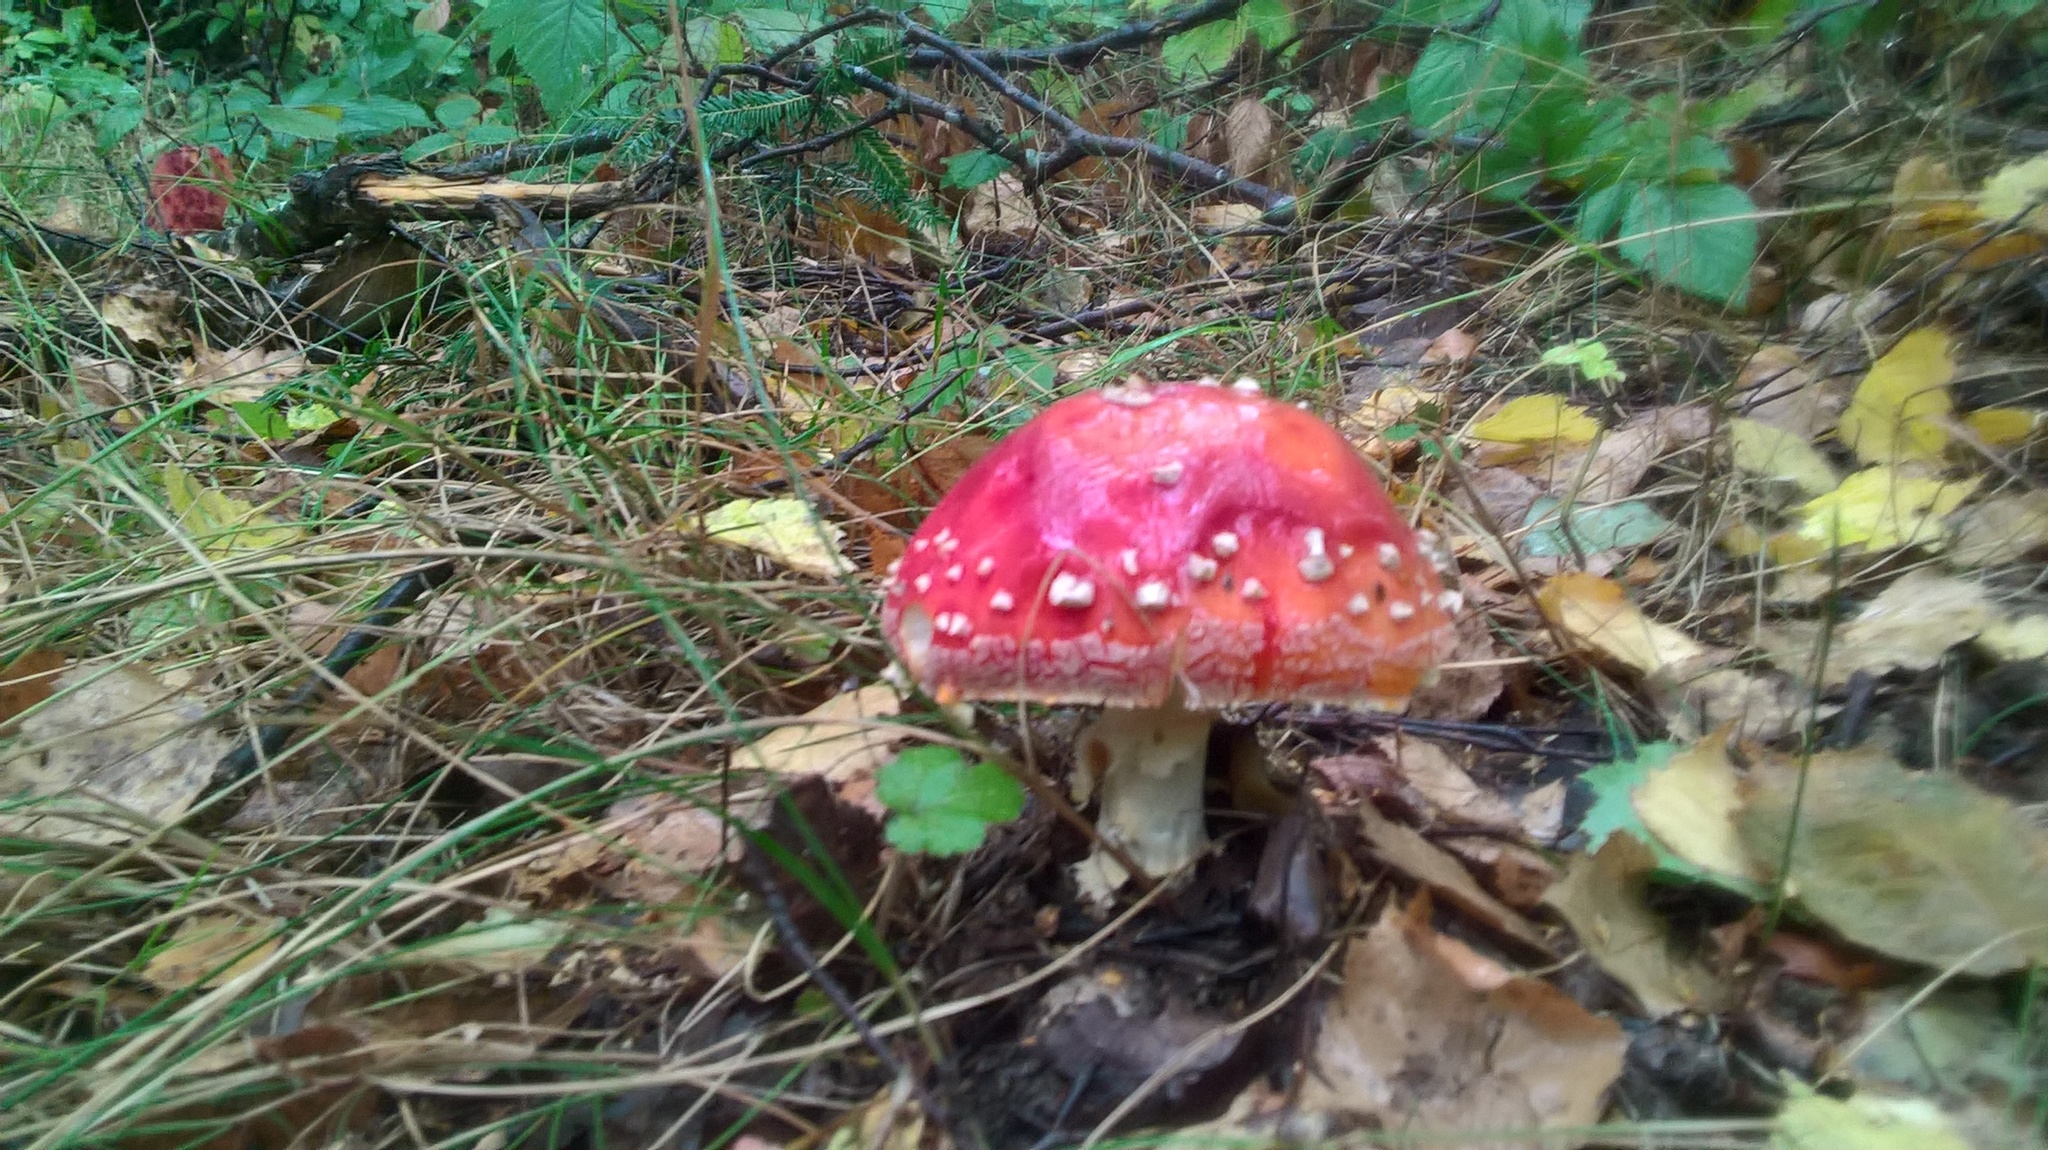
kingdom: Fungi
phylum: Basidiomycota
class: Agaricomycetes
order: Agaricales
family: Amanitaceae
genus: Amanita
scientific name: Amanita muscaria
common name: Fly agaric
